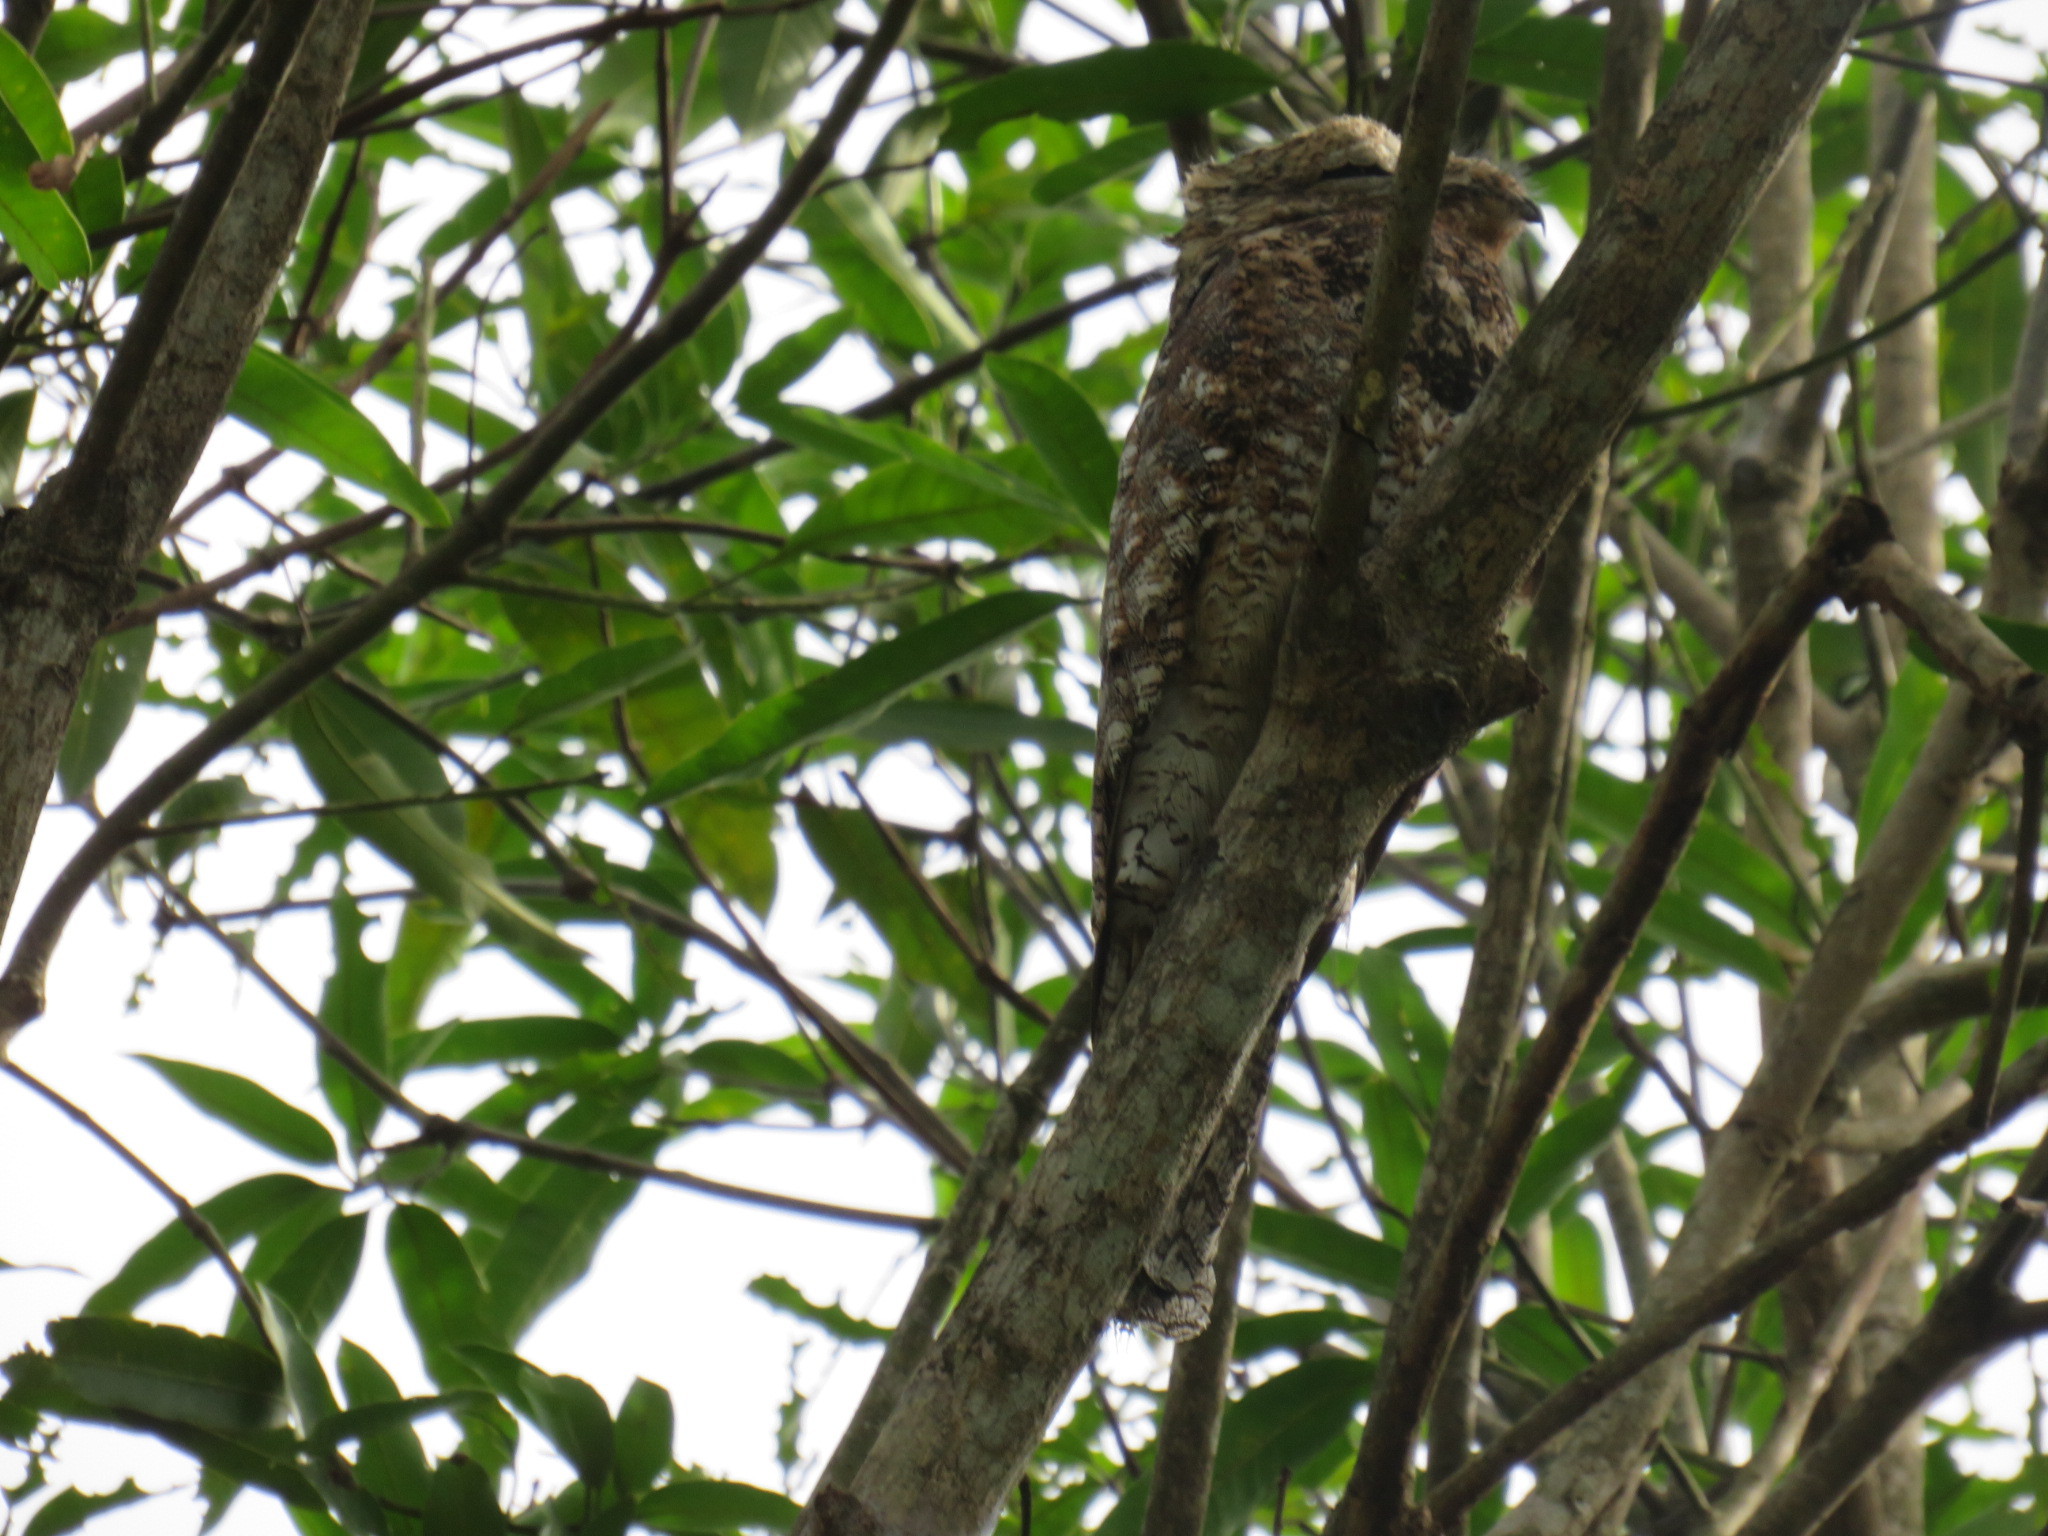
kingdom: Animalia
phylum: Chordata
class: Aves
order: Nyctibiiformes
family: Nyctibiidae
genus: Nyctibius
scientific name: Nyctibius grandis
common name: Great potoo
